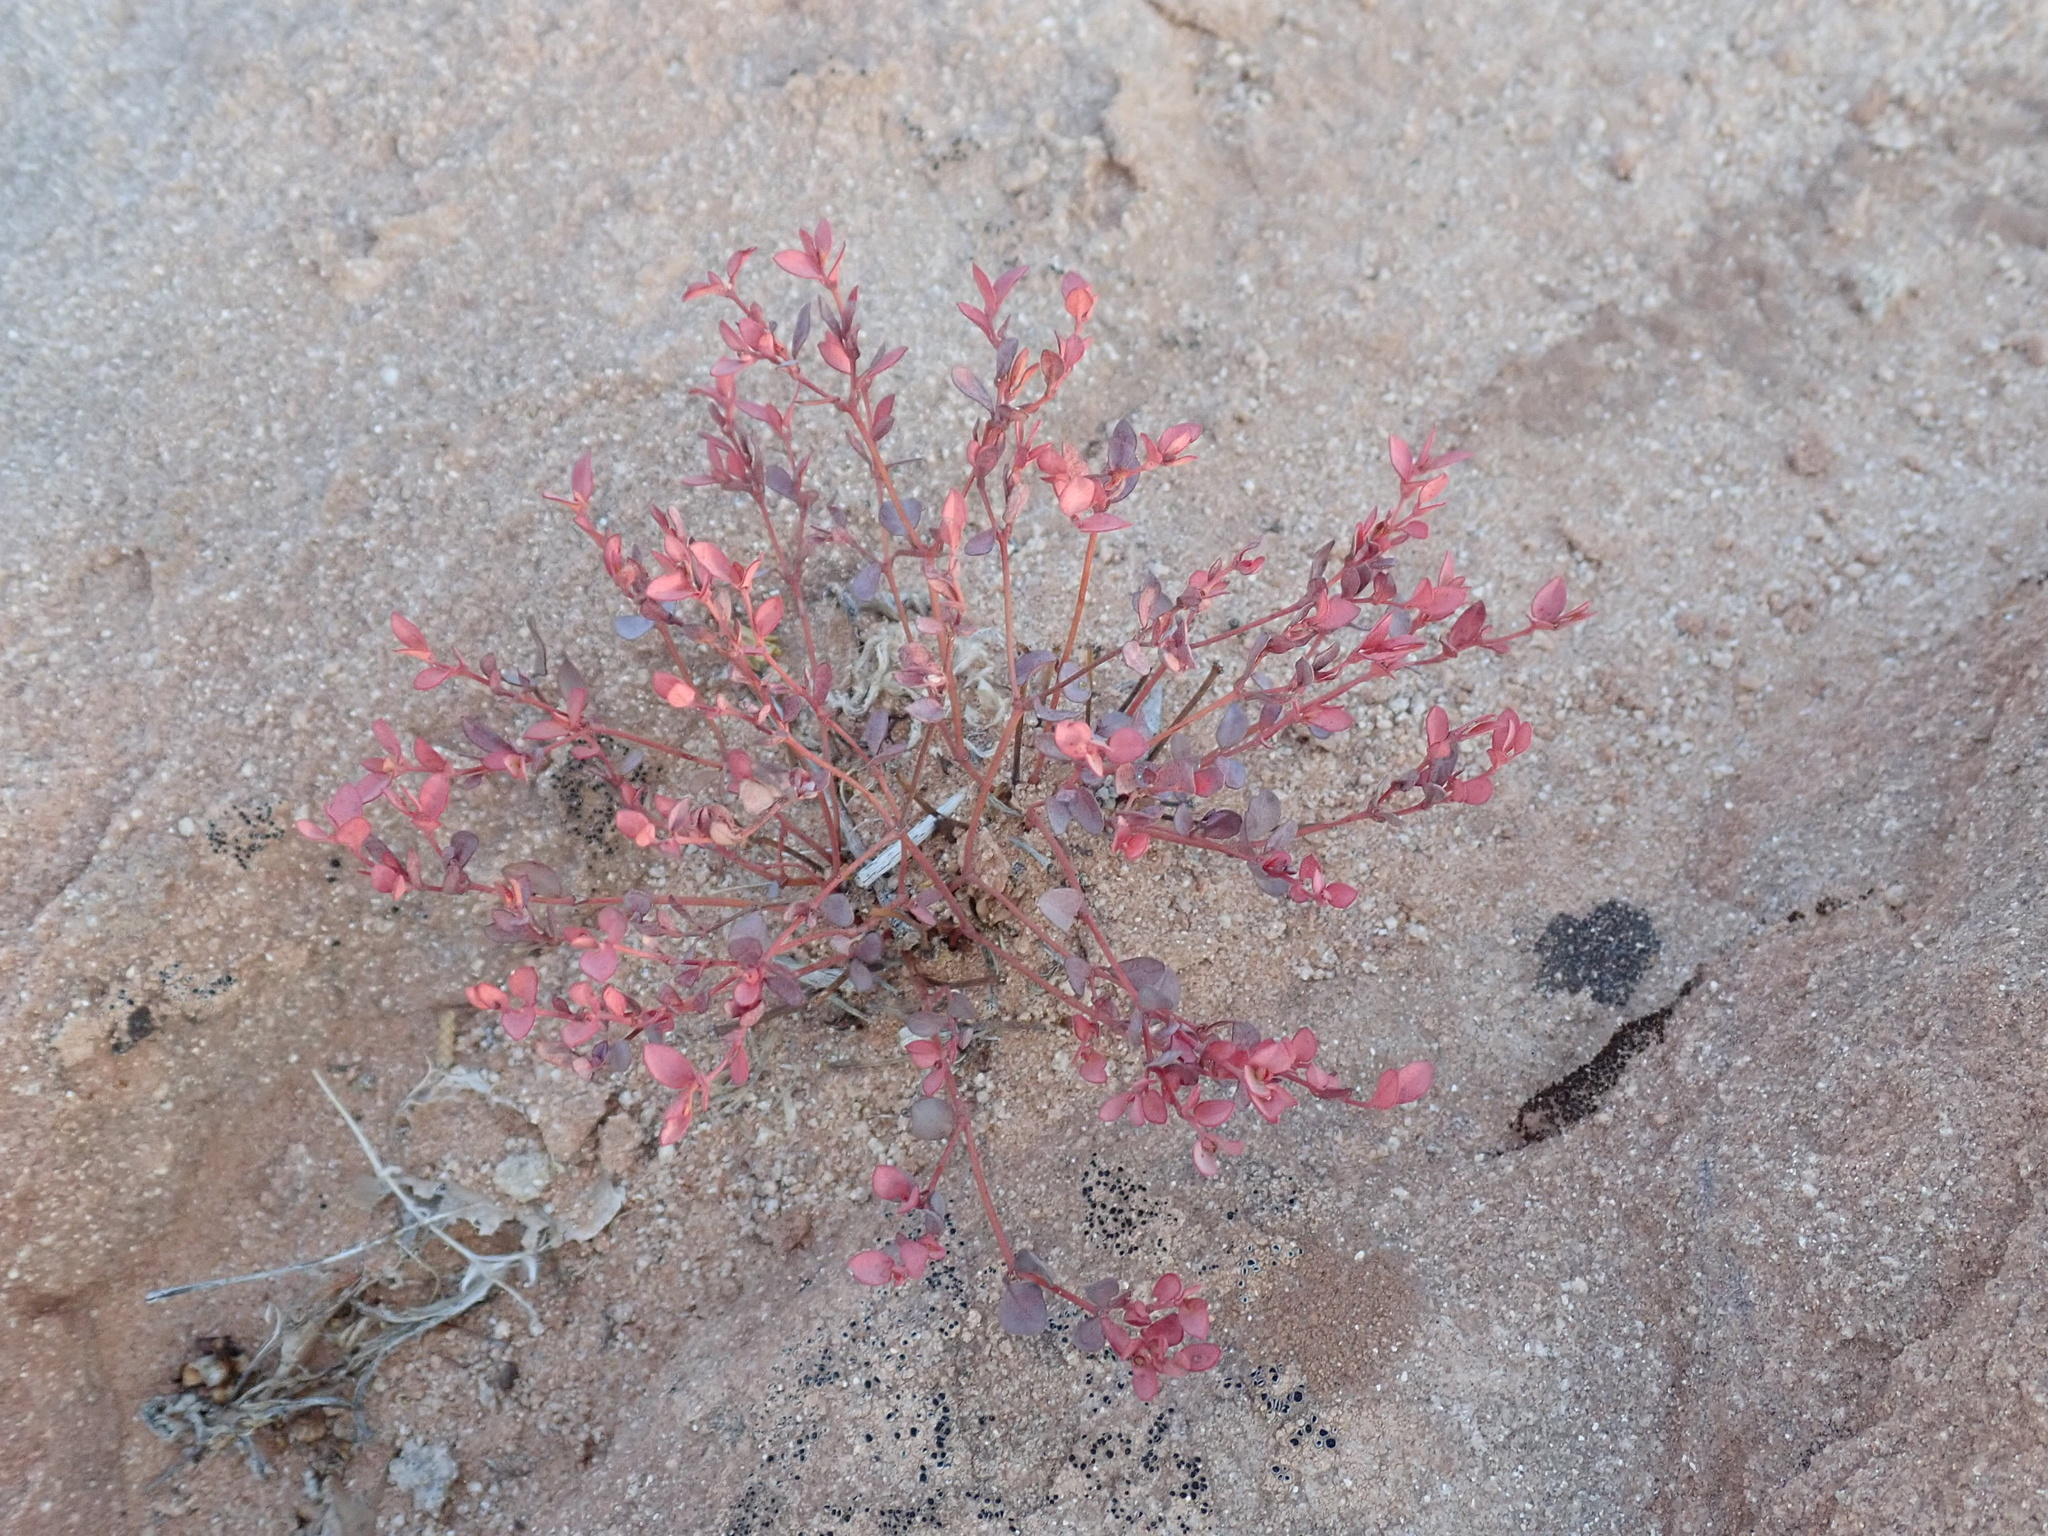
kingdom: Plantae
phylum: Tracheophyta
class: Magnoliopsida
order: Malpighiales
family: Euphorbiaceae
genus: Euphorbia
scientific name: Euphorbia fendleri
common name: Fendler's euphorbia
